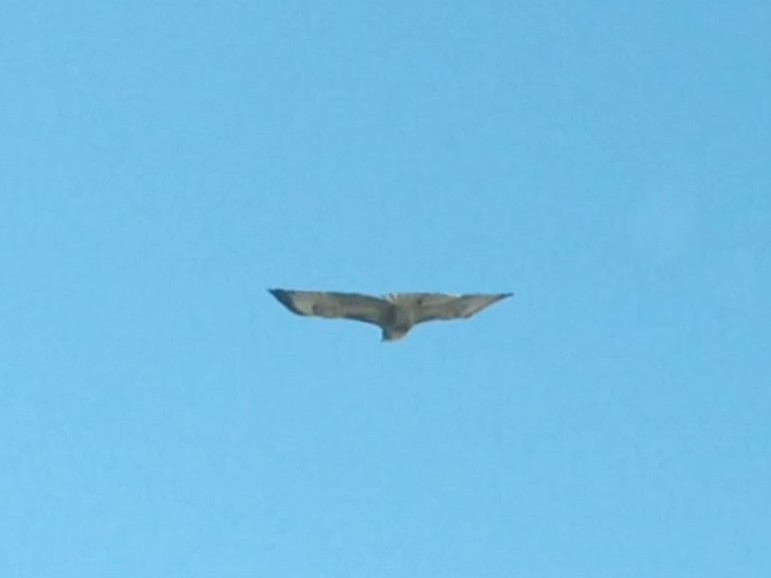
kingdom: Animalia
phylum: Chordata
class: Aves
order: Accipitriformes
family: Accipitridae
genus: Buteo
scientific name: Buteo jamaicensis
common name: Red-tailed hawk
